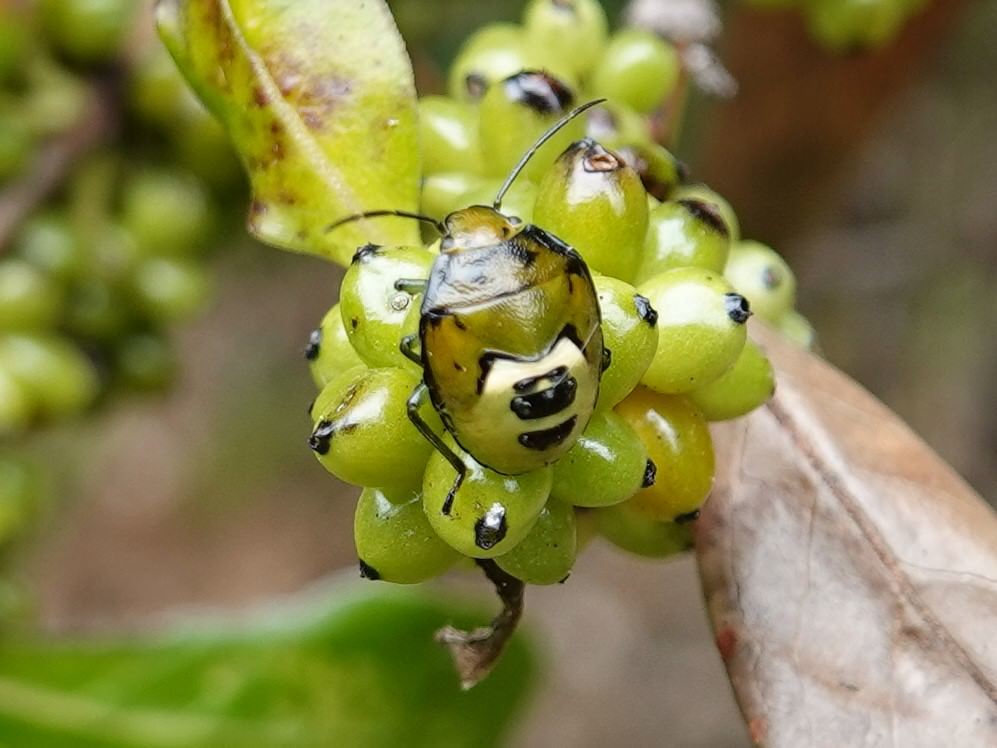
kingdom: Animalia
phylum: Arthropoda
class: Insecta
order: Hemiptera
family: Pentatomidae
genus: Glaucias
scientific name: Glaucias amyota
